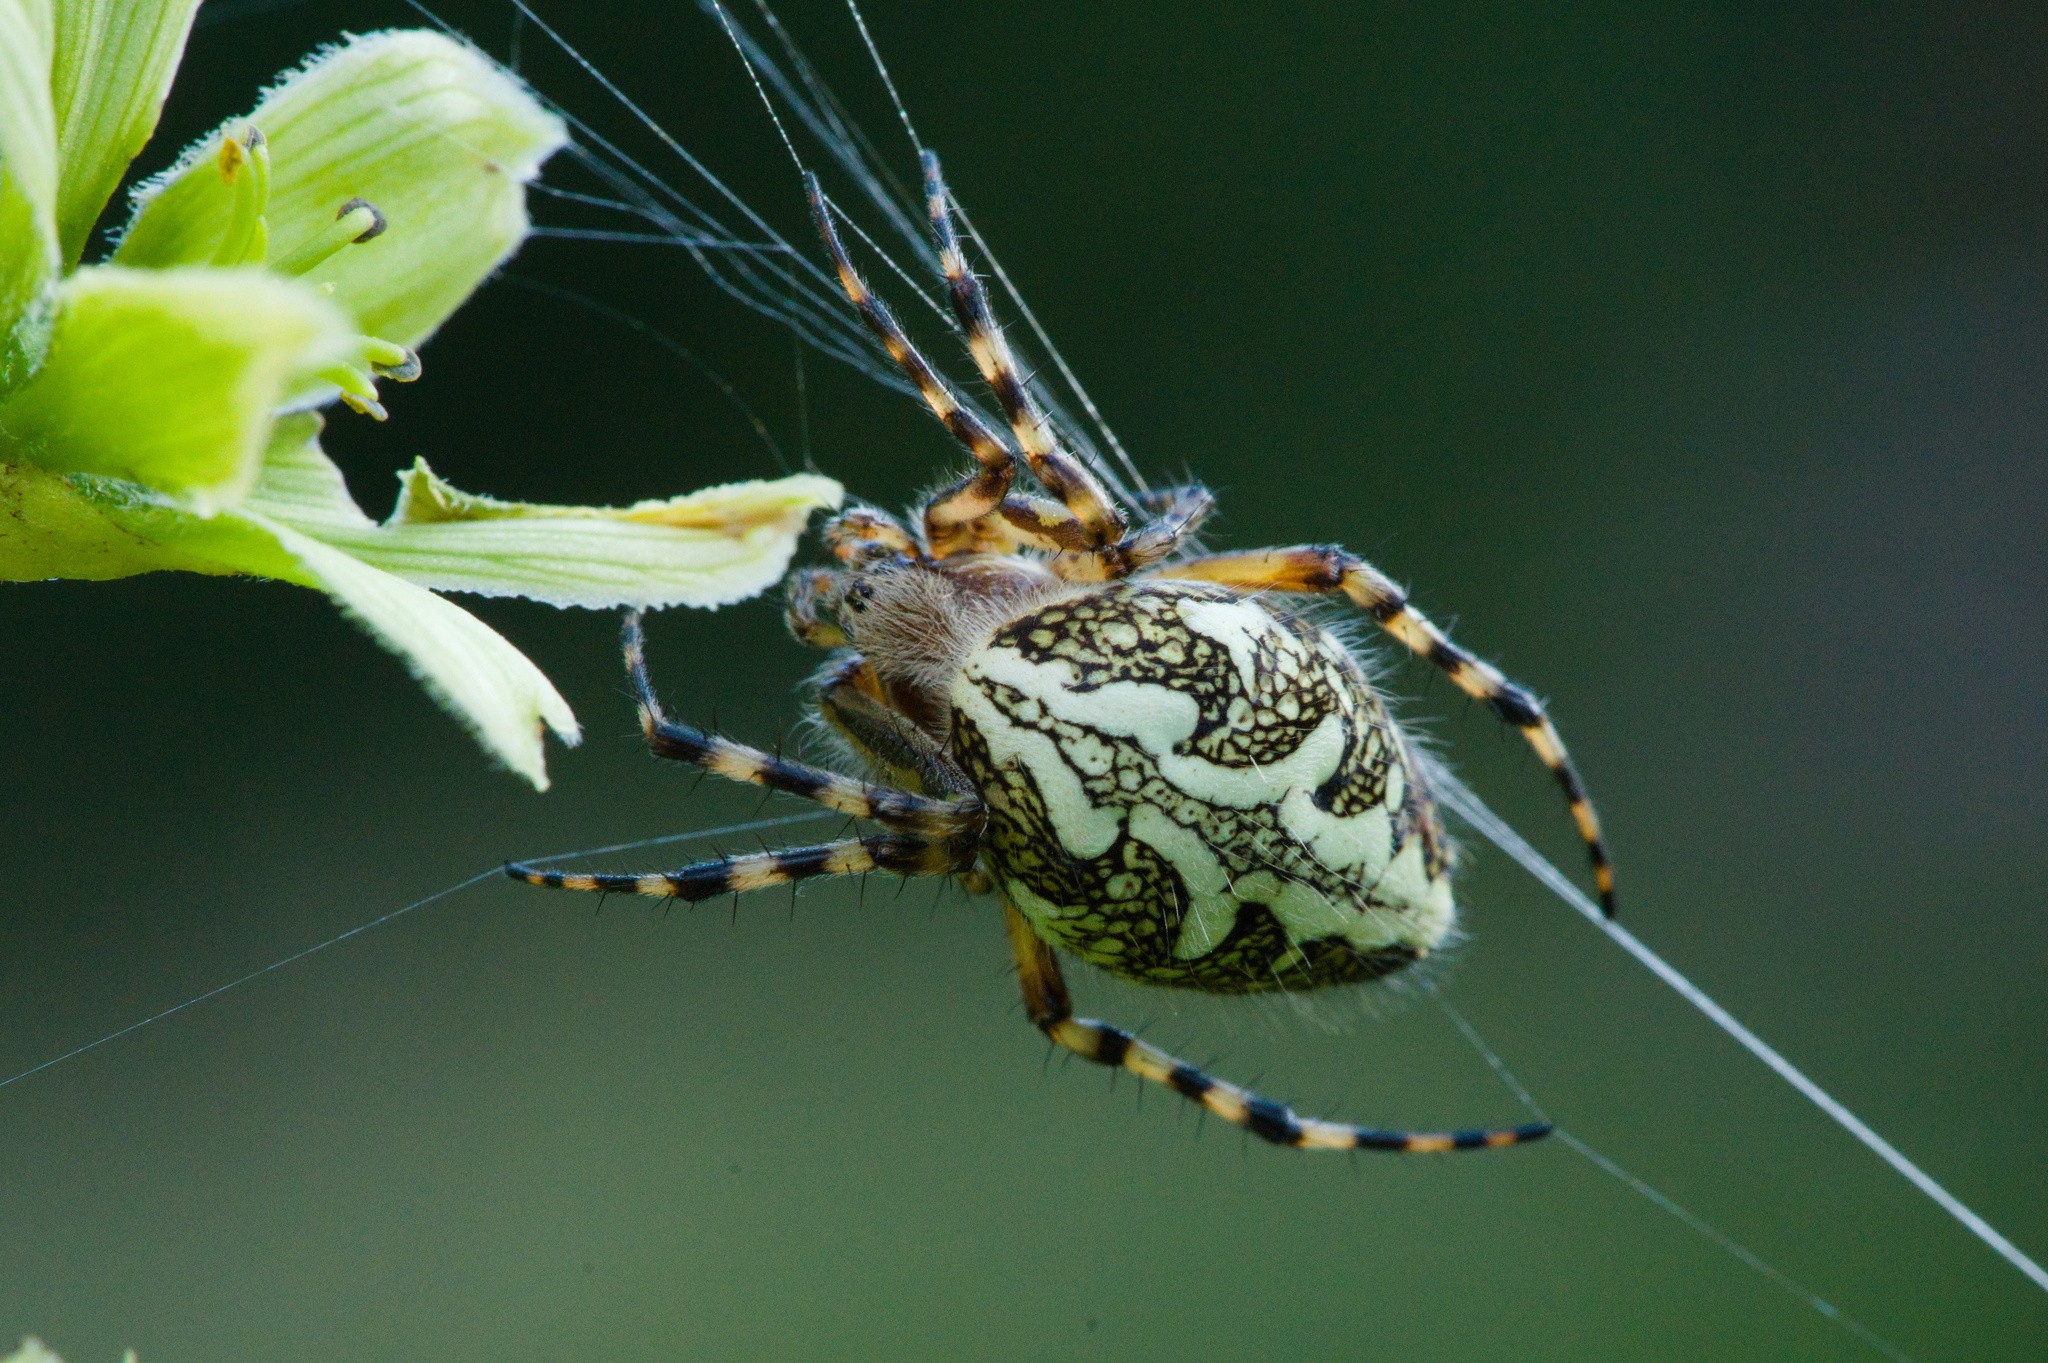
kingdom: Animalia
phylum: Arthropoda
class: Arachnida
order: Araneae
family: Araneidae
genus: Aculepeira
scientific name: Aculepeira ceropegia
